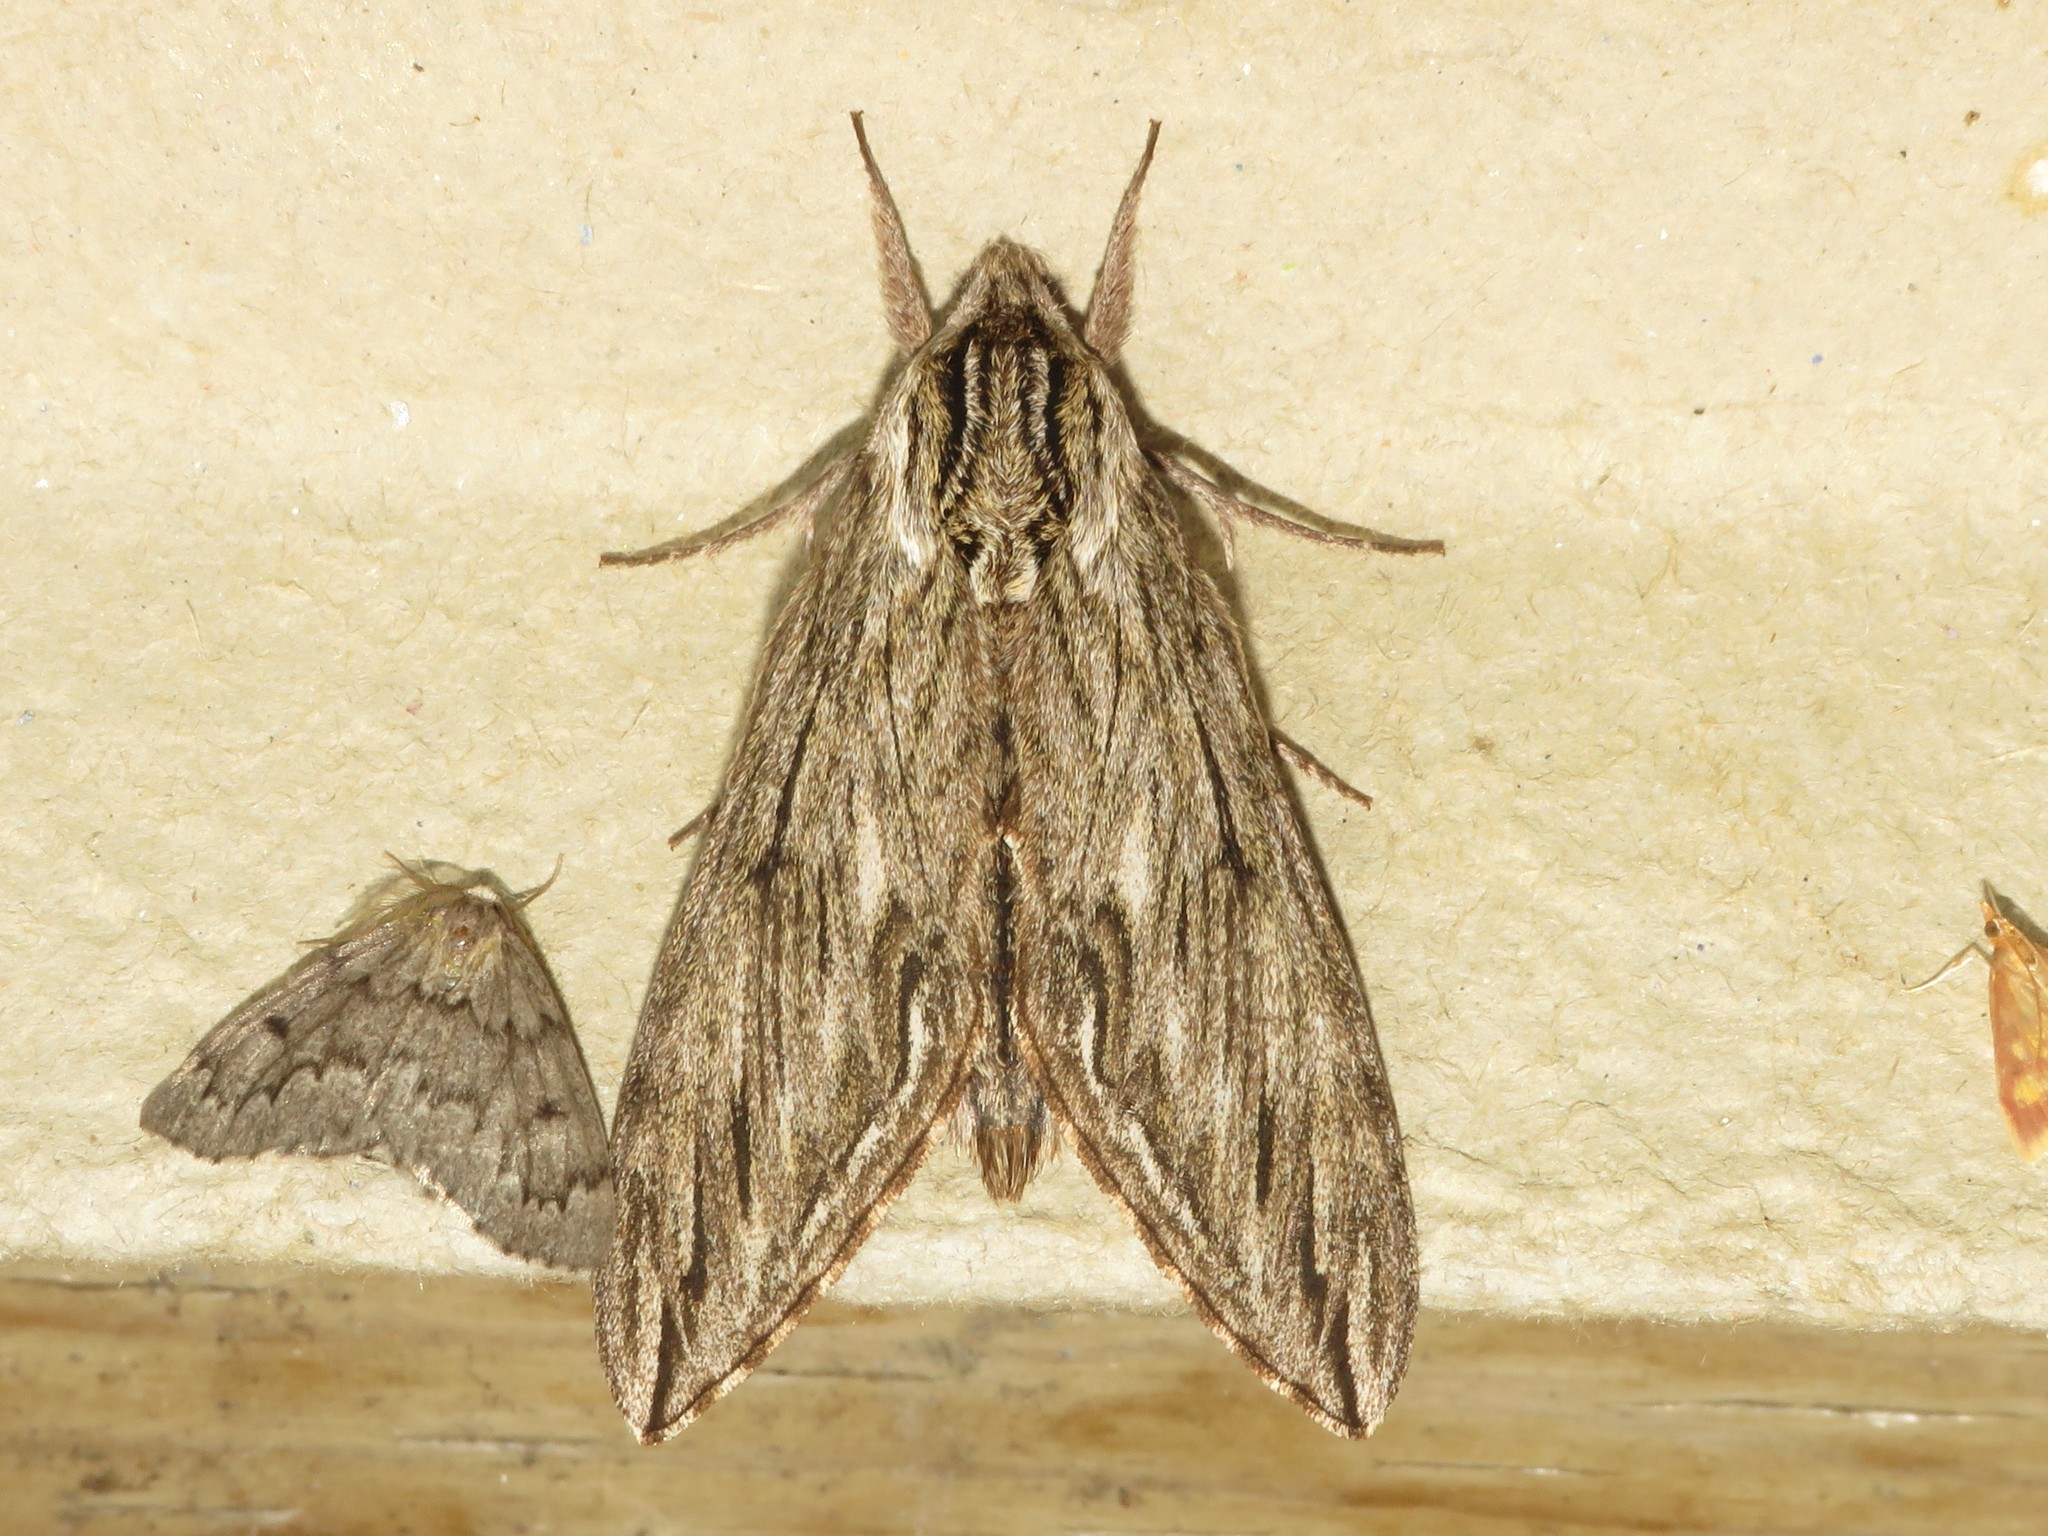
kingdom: Animalia
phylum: Arthropoda
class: Insecta
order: Lepidoptera
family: Sphingidae
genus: Sphinx
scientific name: Sphinx canadensis
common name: Canadian sphinx
